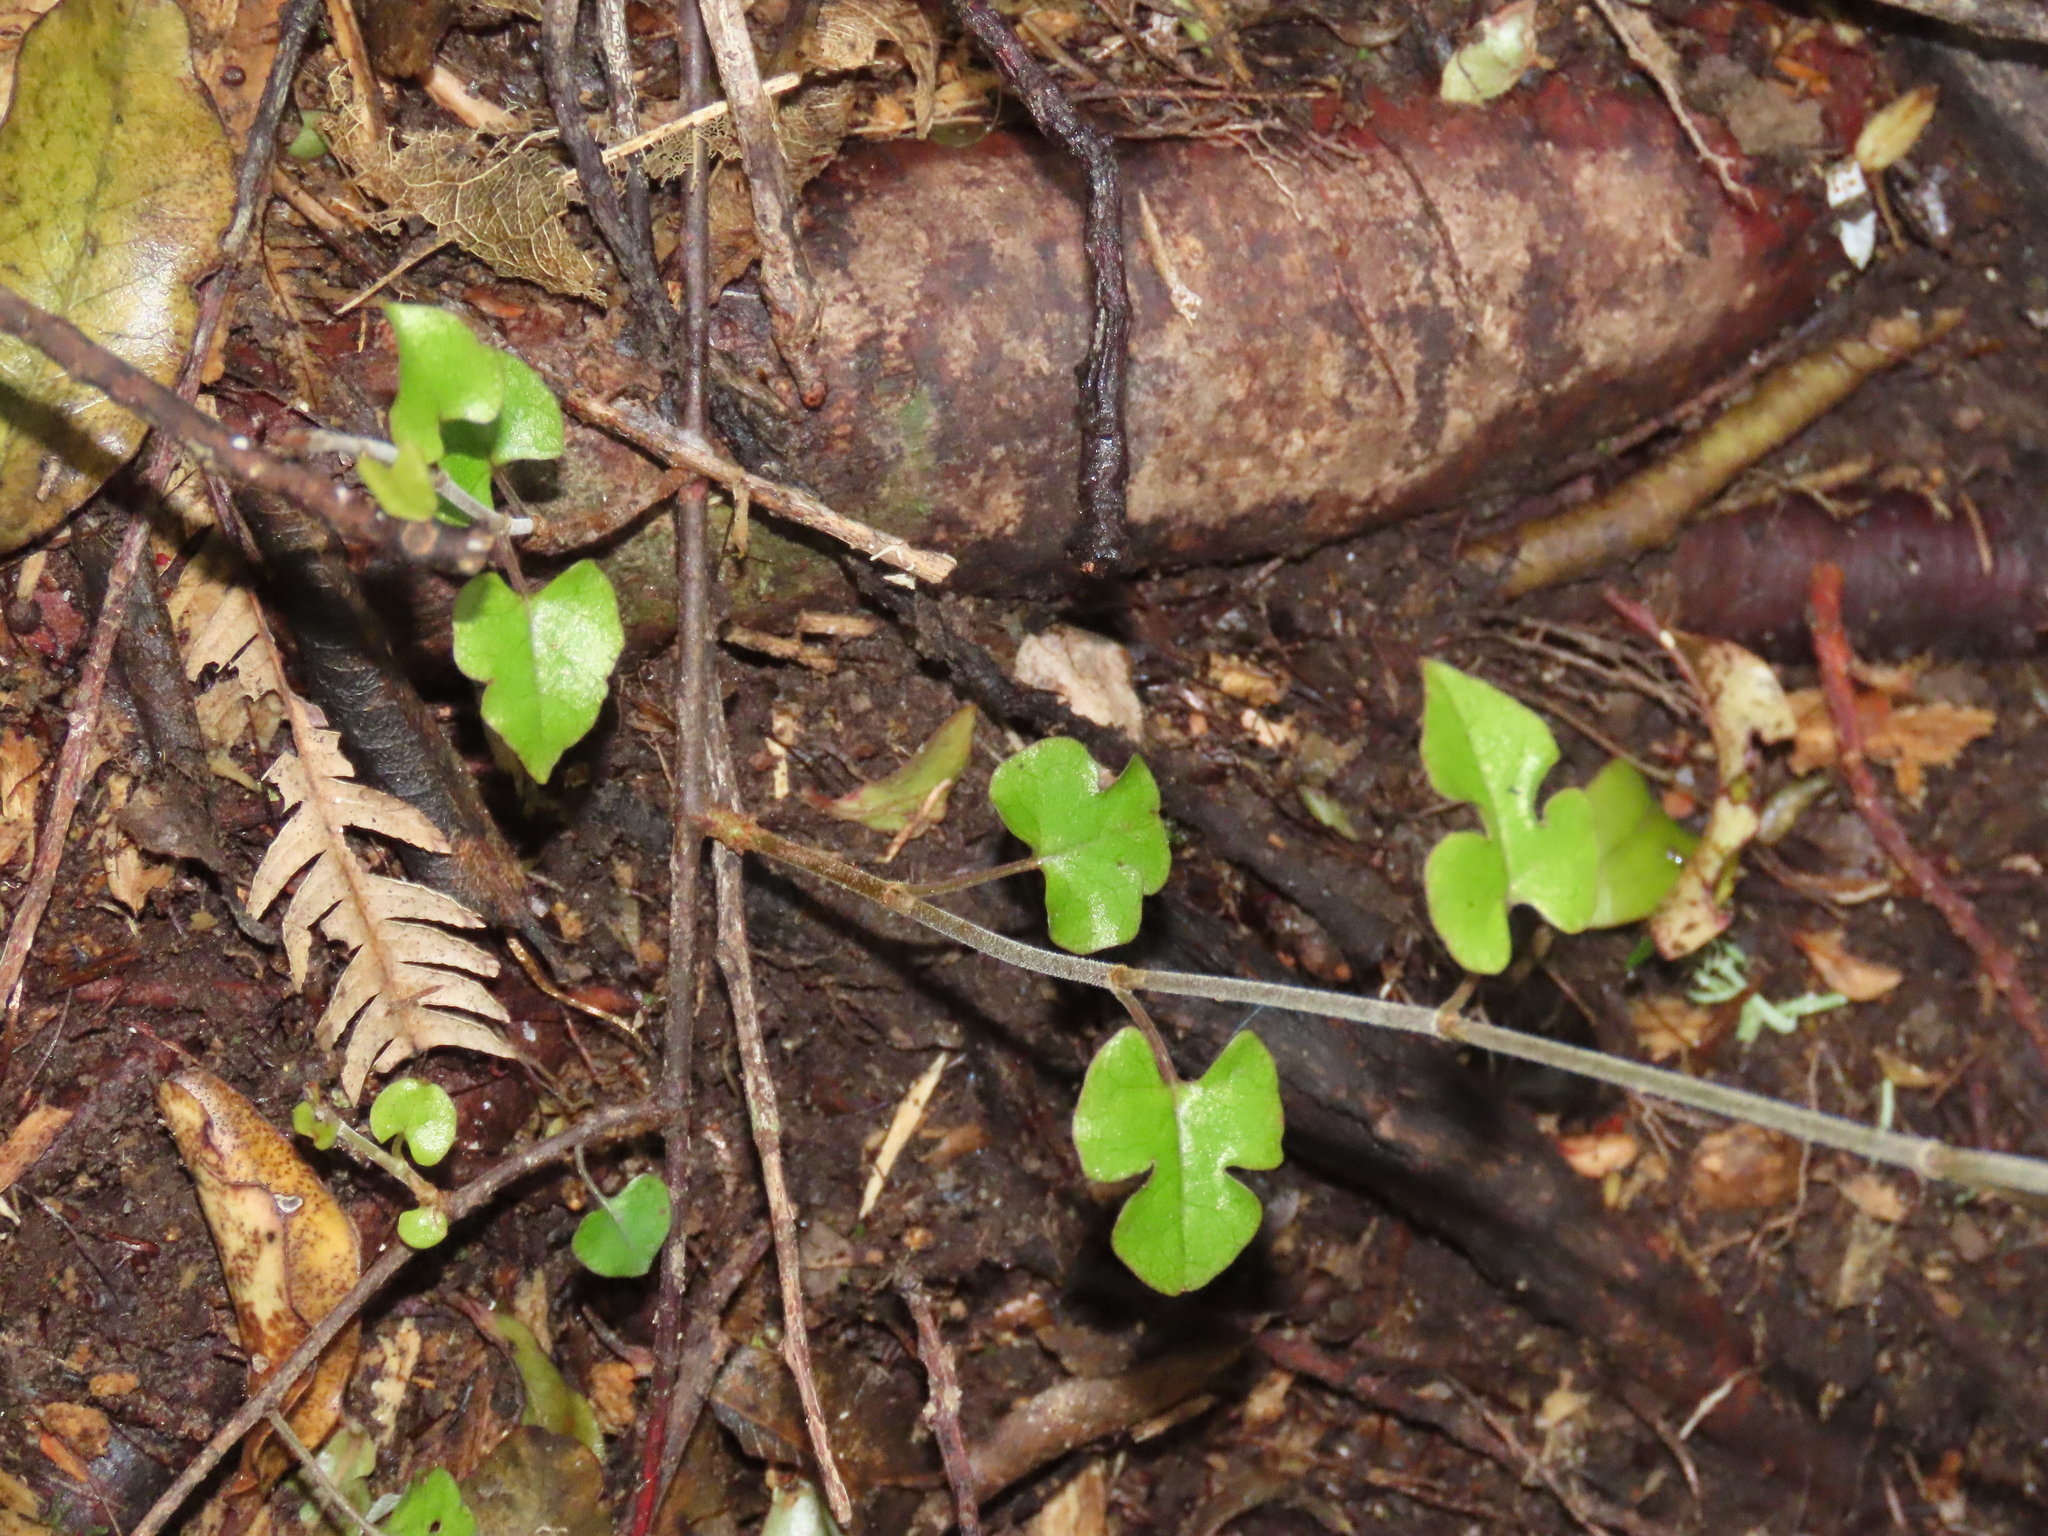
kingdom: Plantae
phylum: Tracheophyta
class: Magnoliopsida
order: Caryophyllales
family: Polygonaceae
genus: Muehlenbeckia
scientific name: Muehlenbeckia australis
